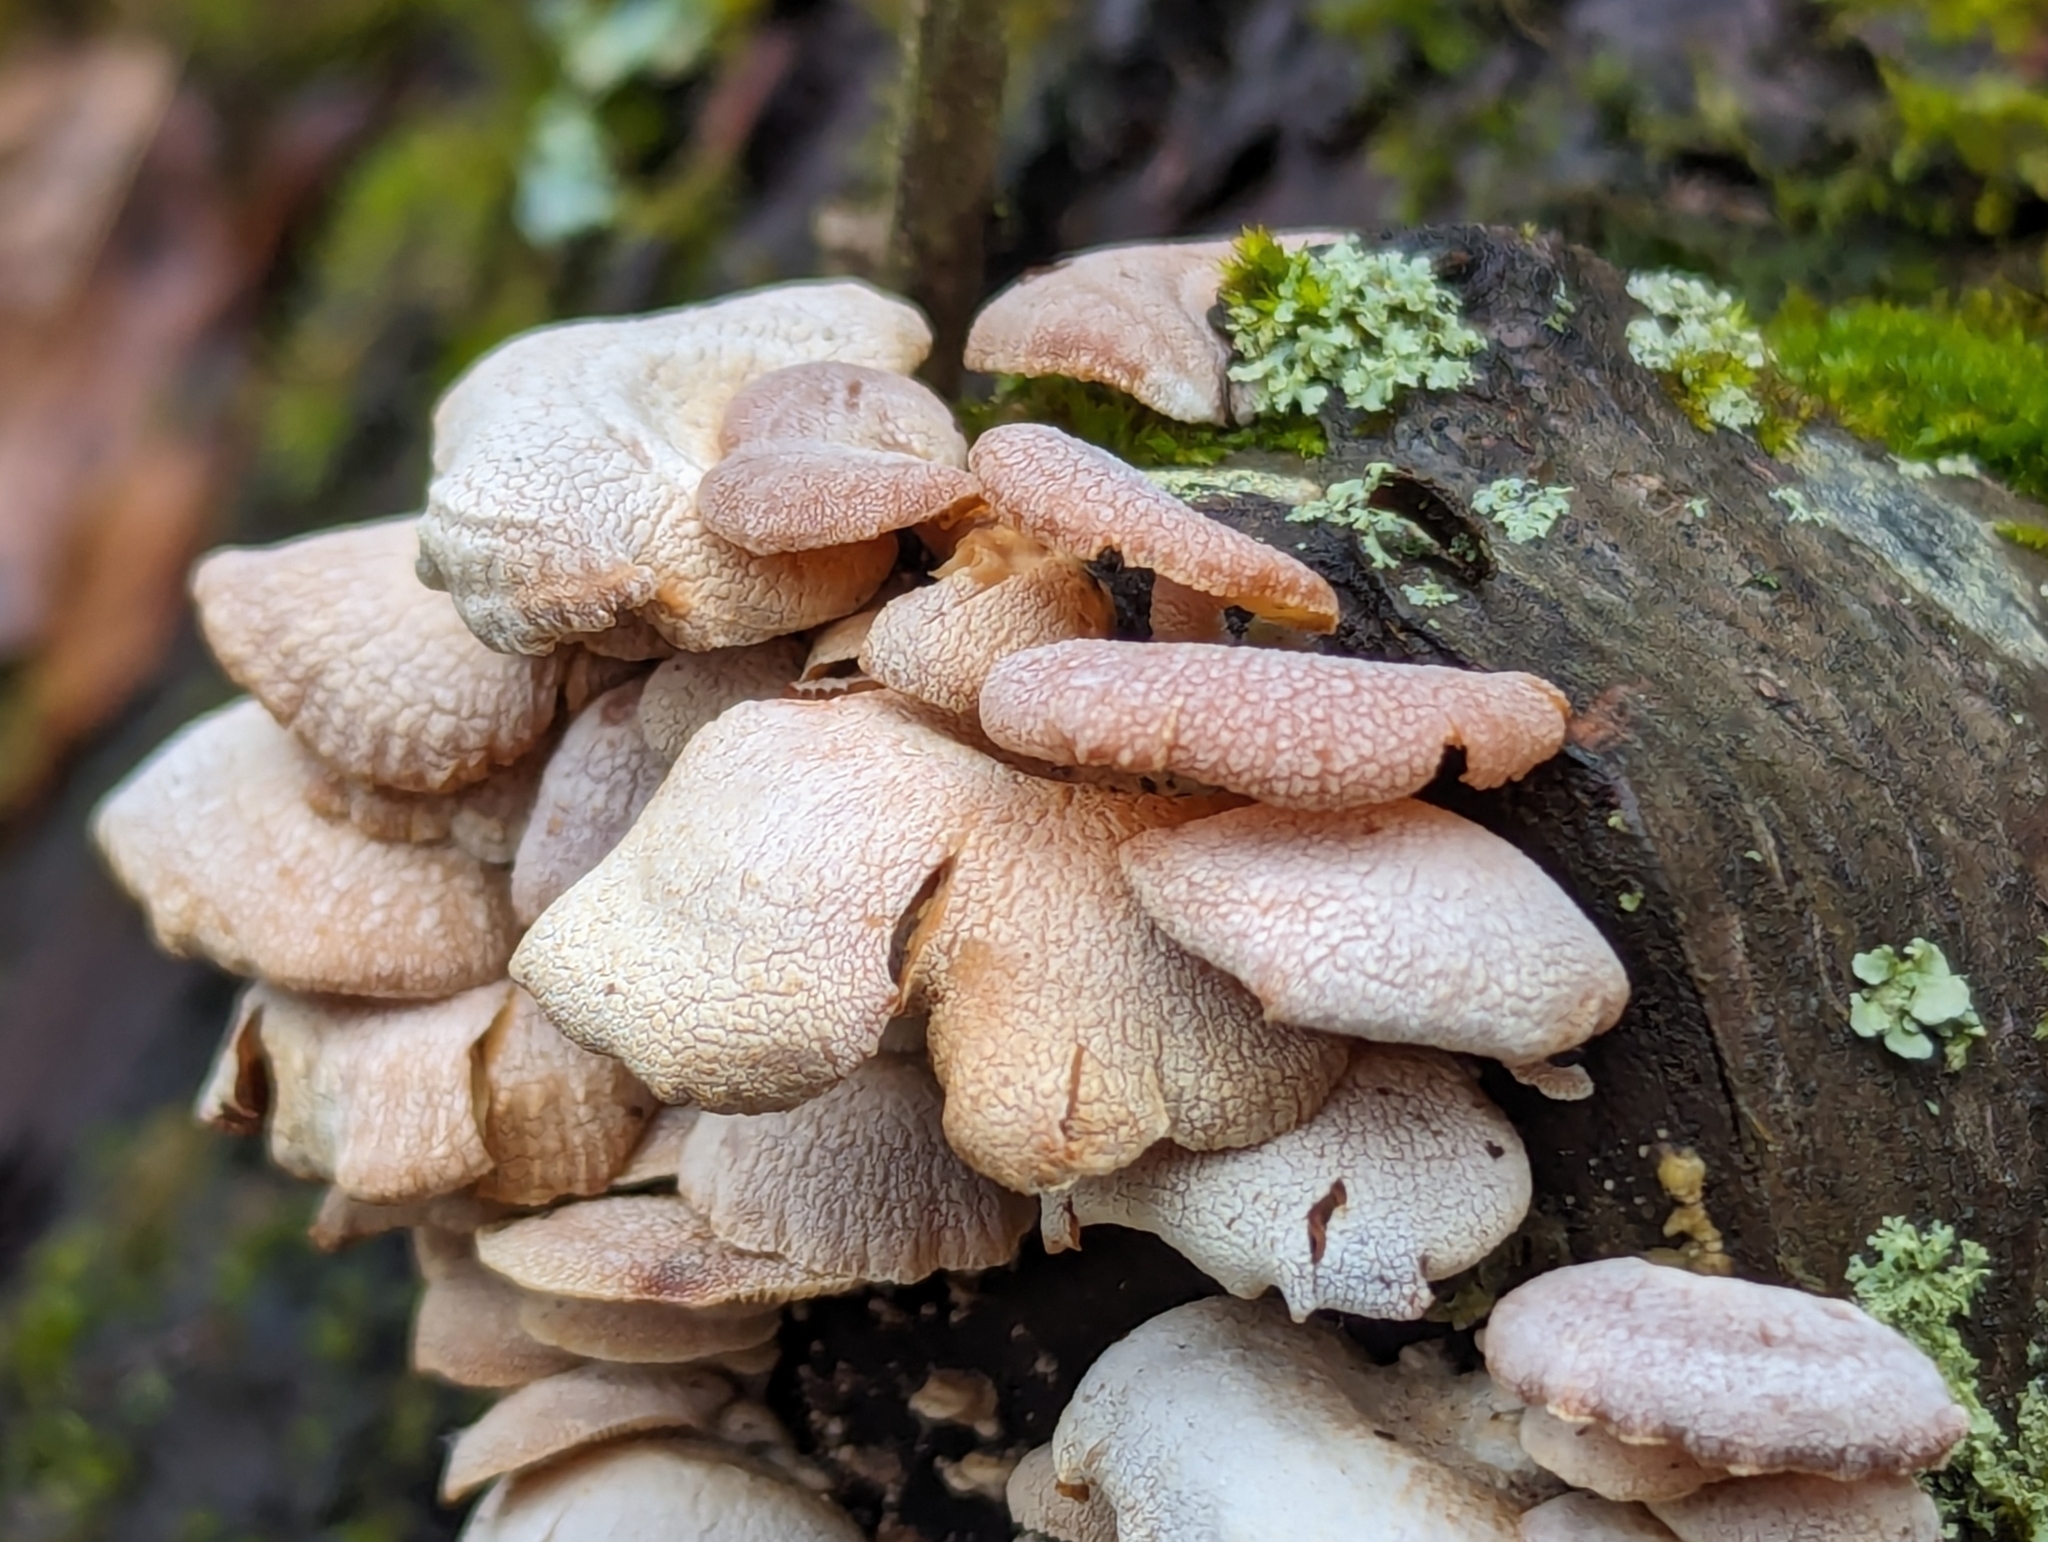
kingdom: Fungi
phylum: Basidiomycota
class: Agaricomycetes
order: Agaricales
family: Mycenaceae
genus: Panellus
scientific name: Panellus stipticus
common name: Bitter oysterling
